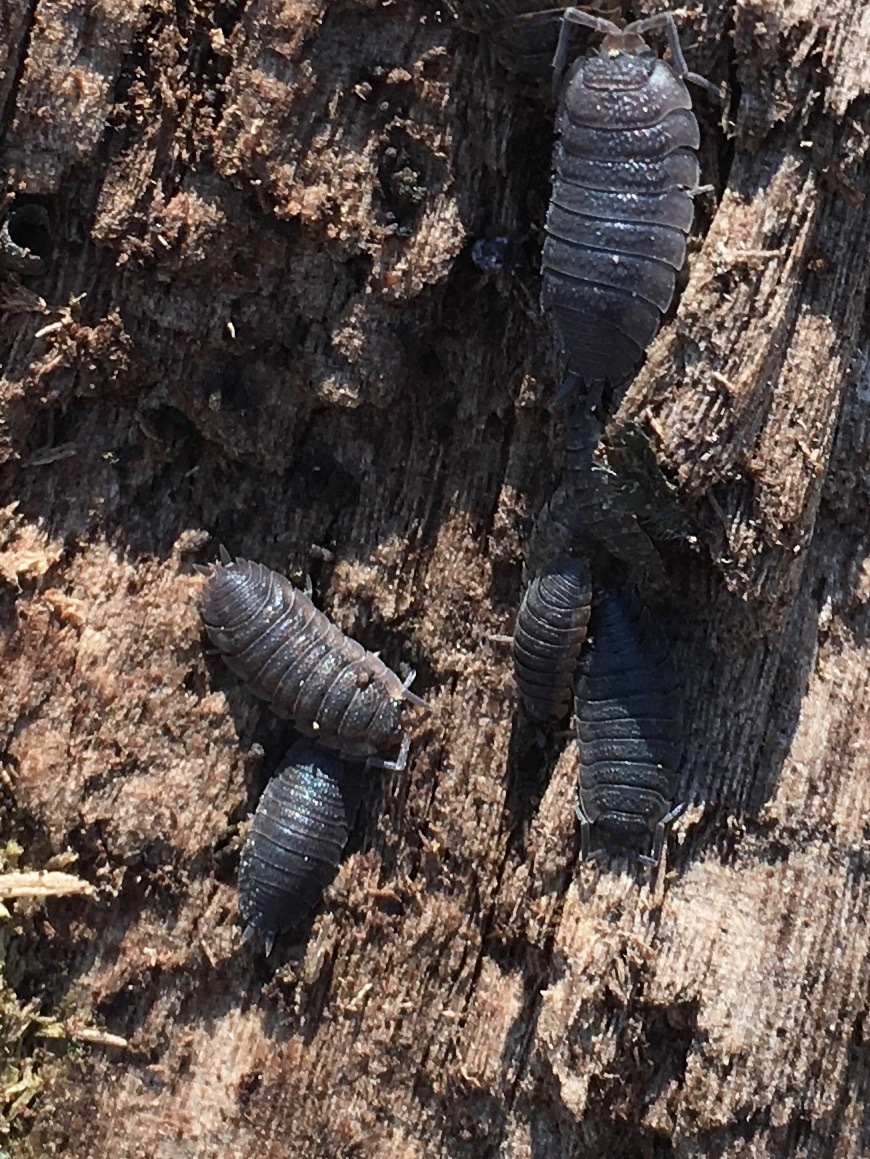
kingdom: Animalia
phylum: Arthropoda
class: Malacostraca
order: Isopoda
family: Porcellionidae
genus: Porcellio
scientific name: Porcellio scaber
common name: Common rough woodlouse
